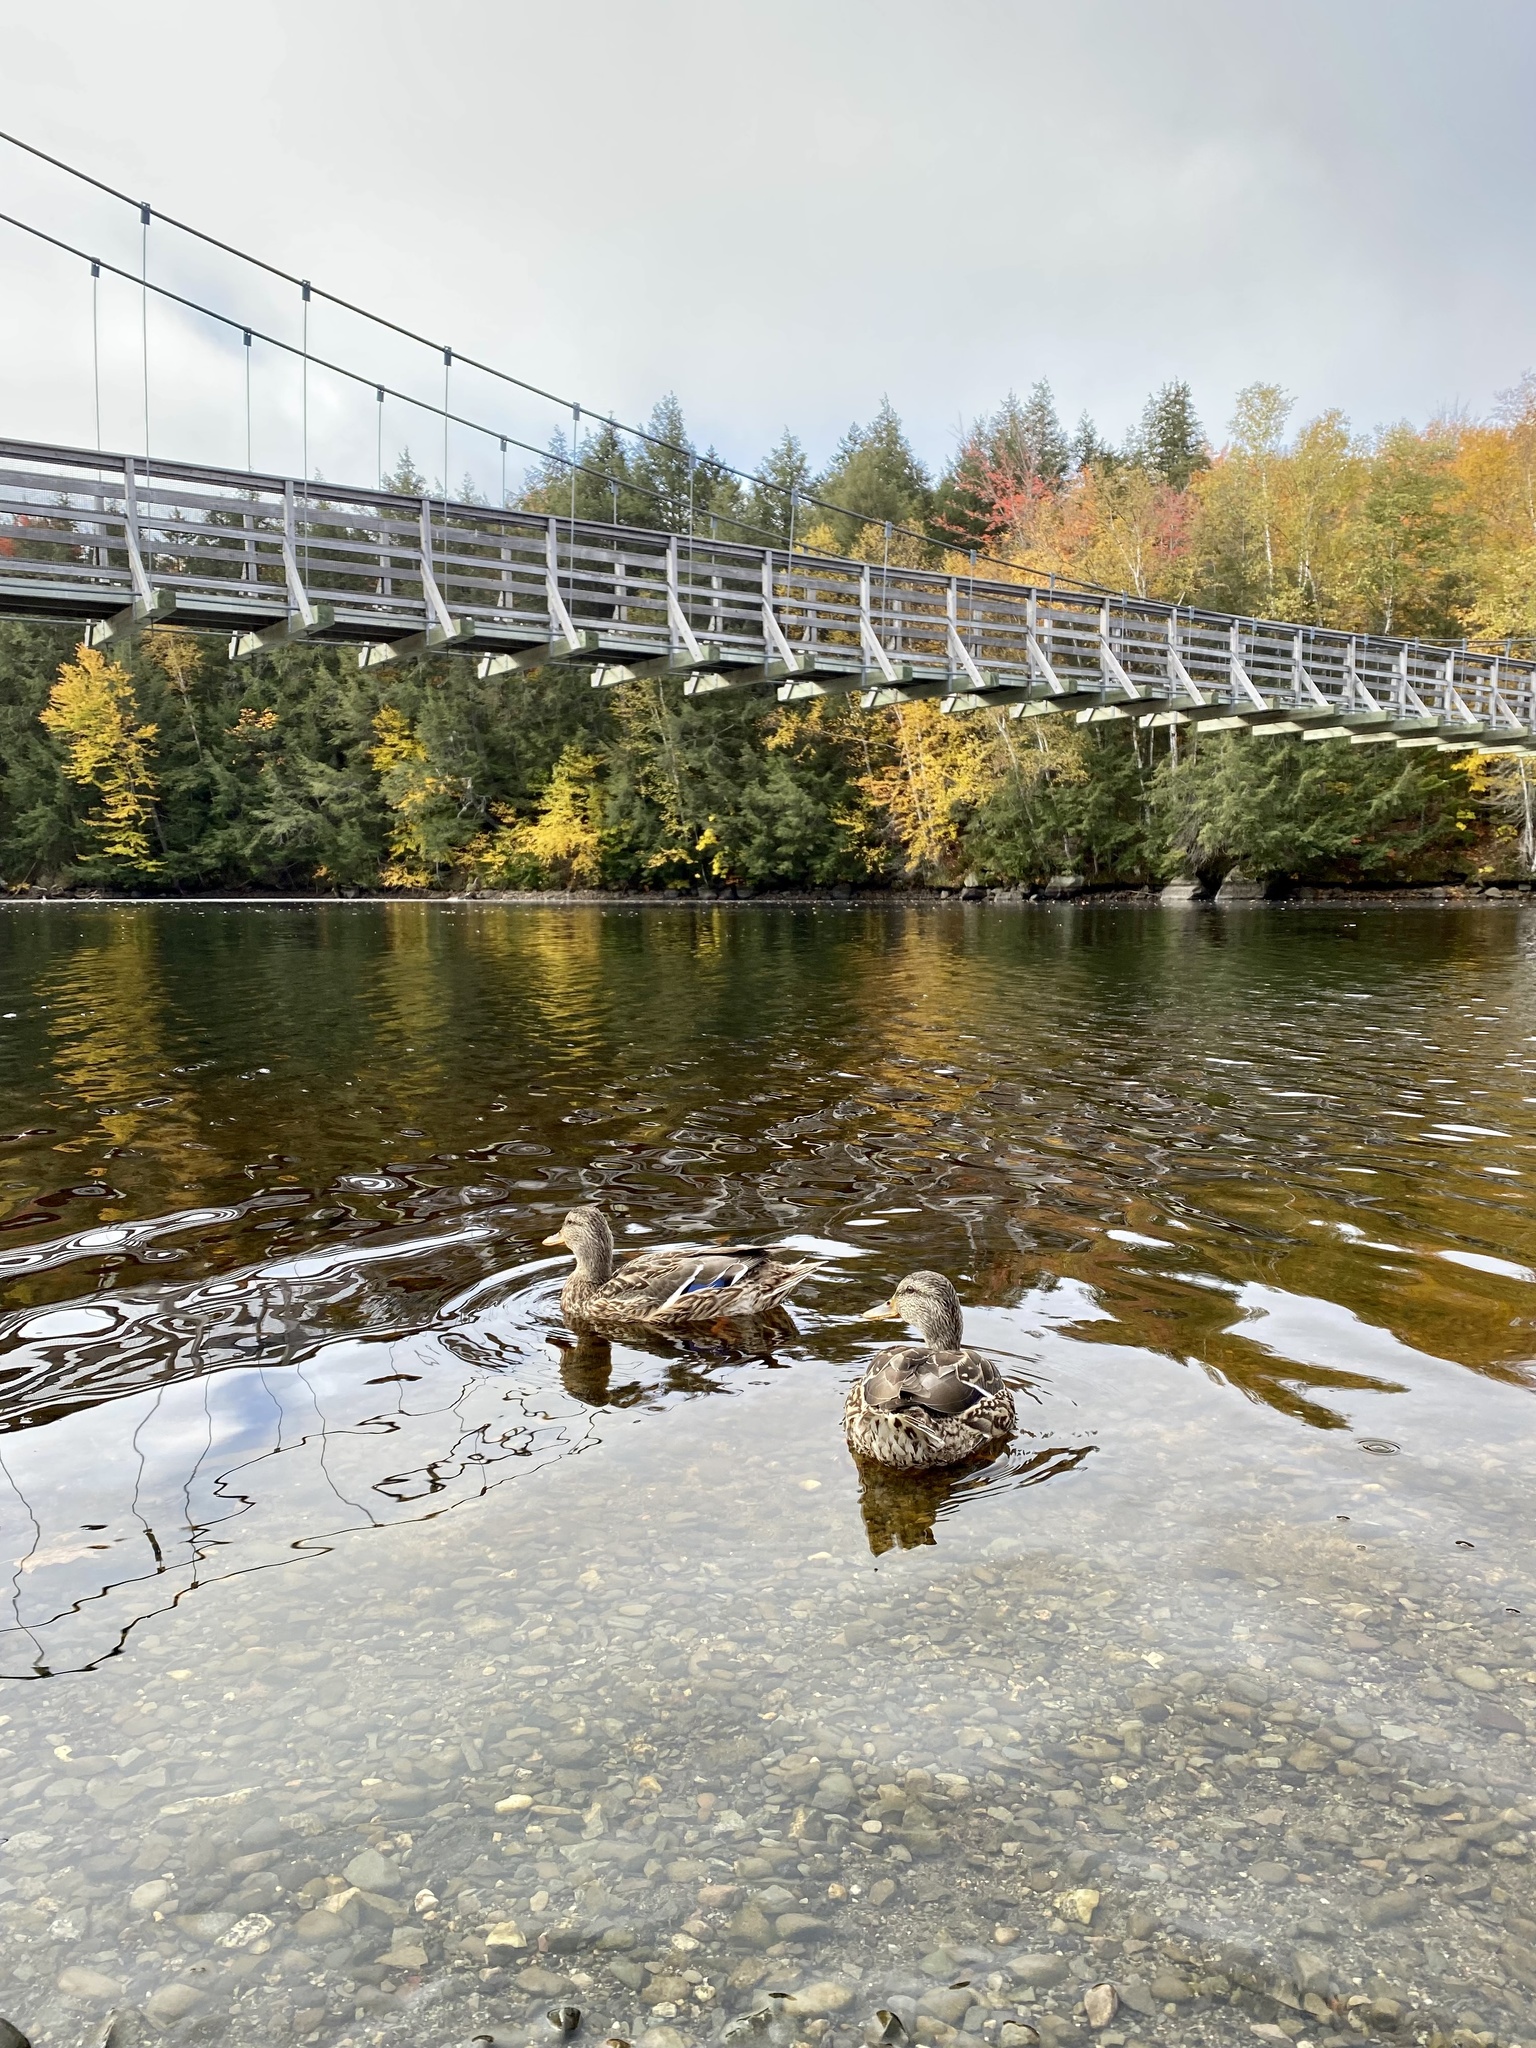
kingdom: Animalia
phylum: Chordata
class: Aves
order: Anseriformes
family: Anatidae
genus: Anas
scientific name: Anas platyrhynchos
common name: Mallard
